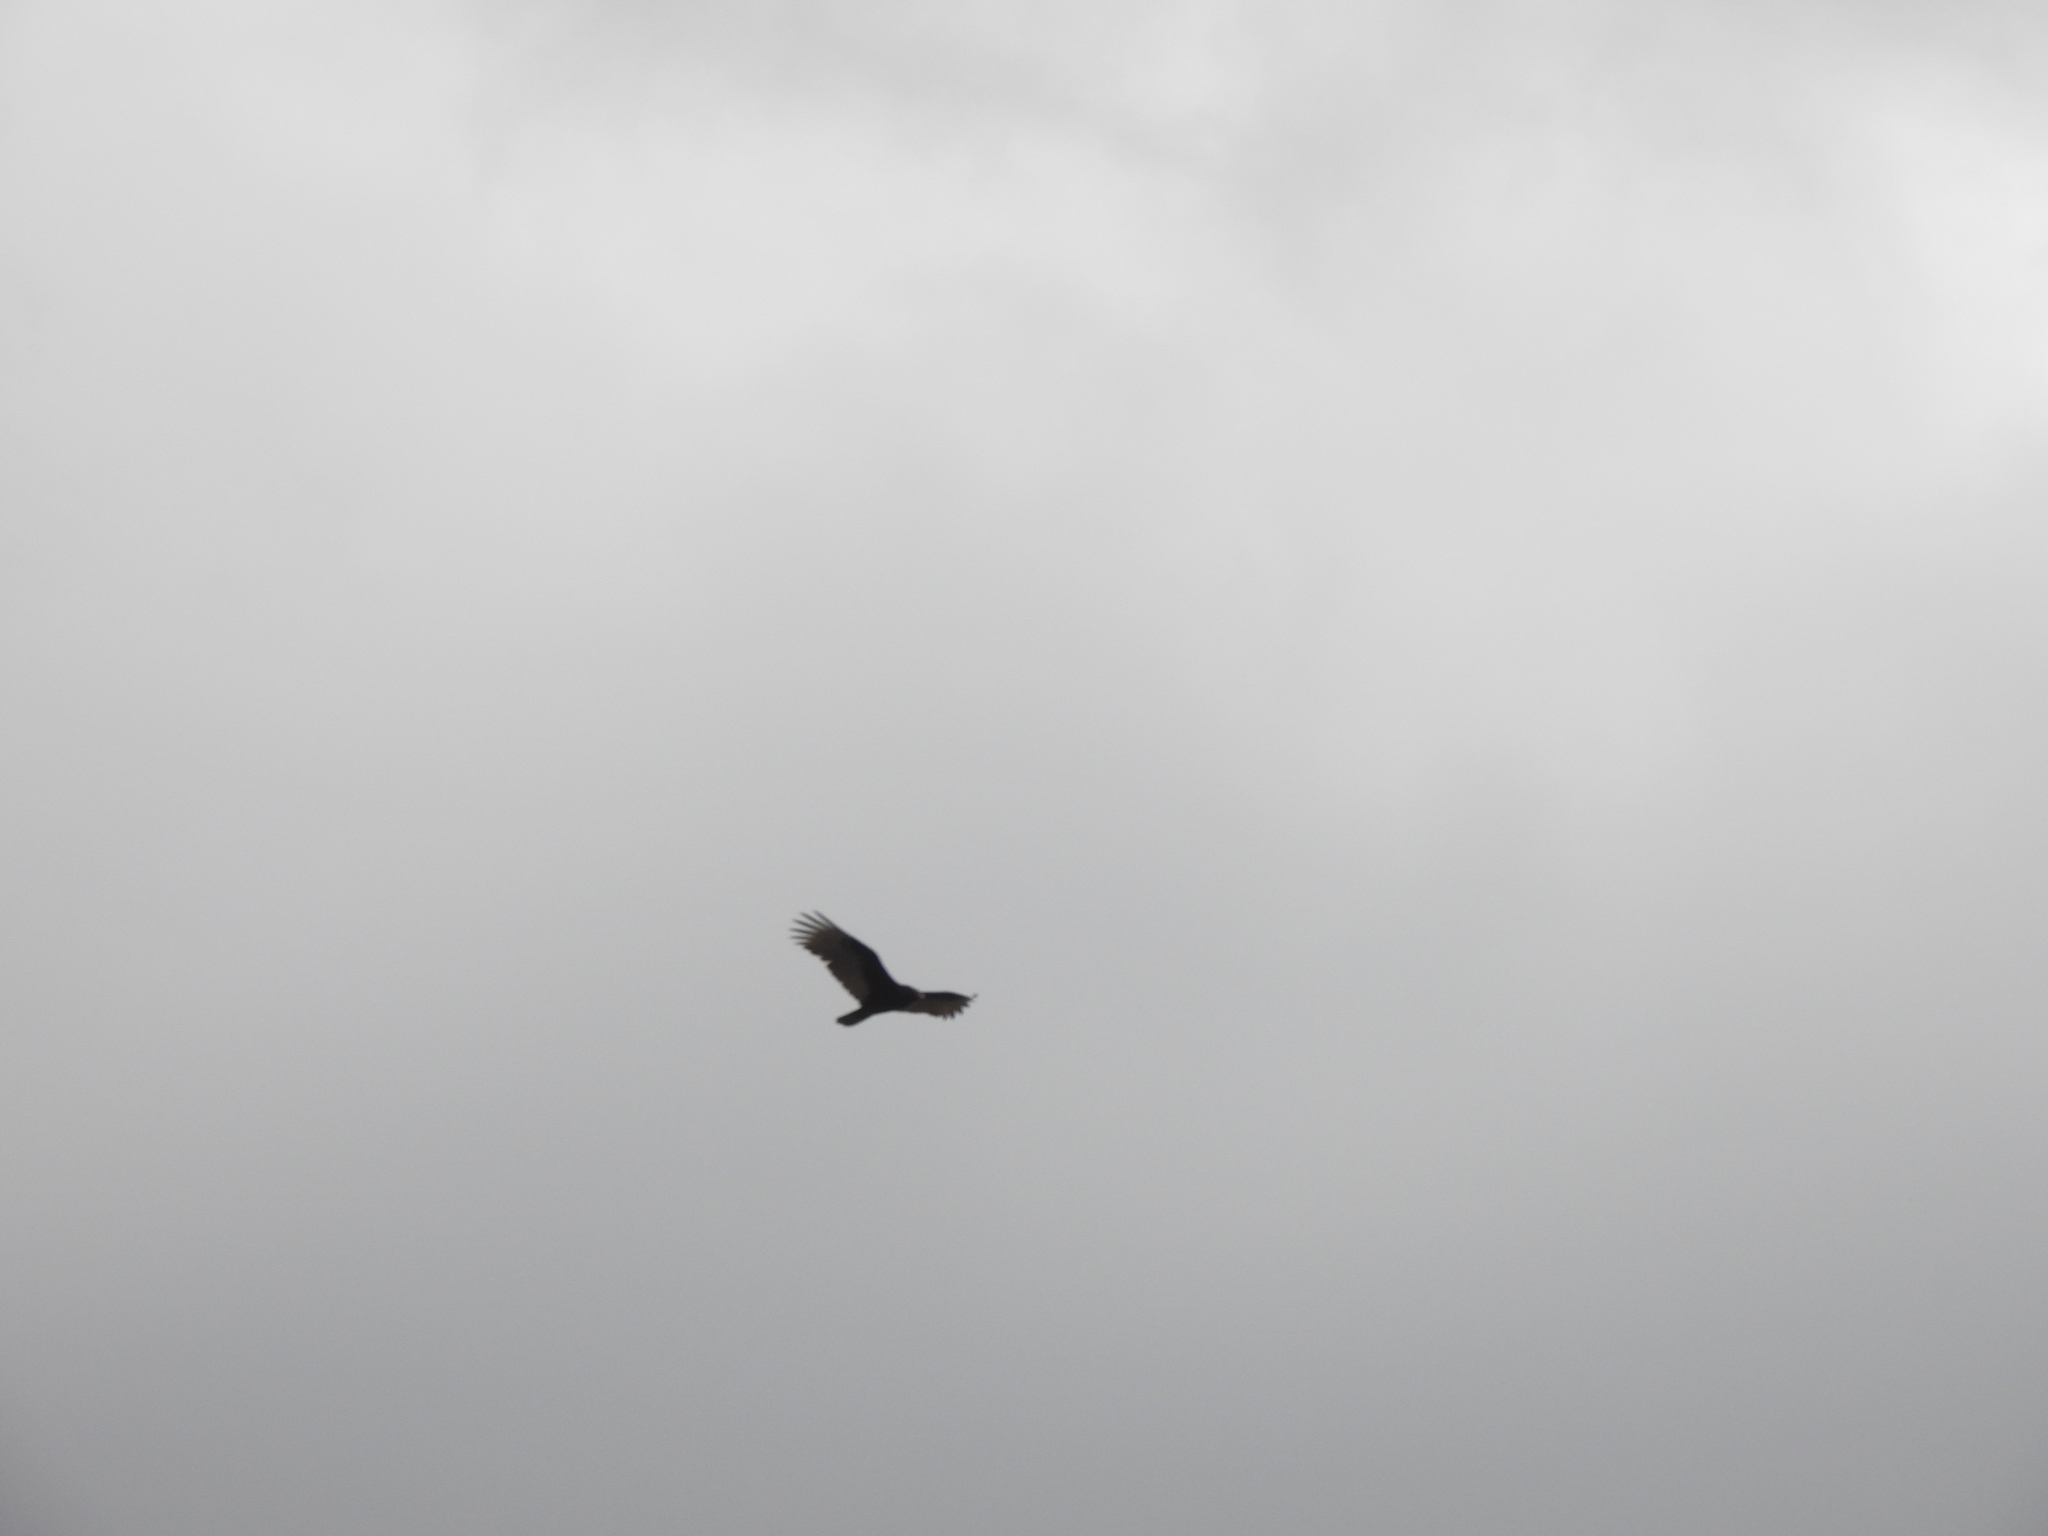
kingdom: Animalia
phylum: Chordata
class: Aves
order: Accipitriformes
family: Cathartidae
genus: Cathartes
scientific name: Cathartes aura
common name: Turkey vulture
